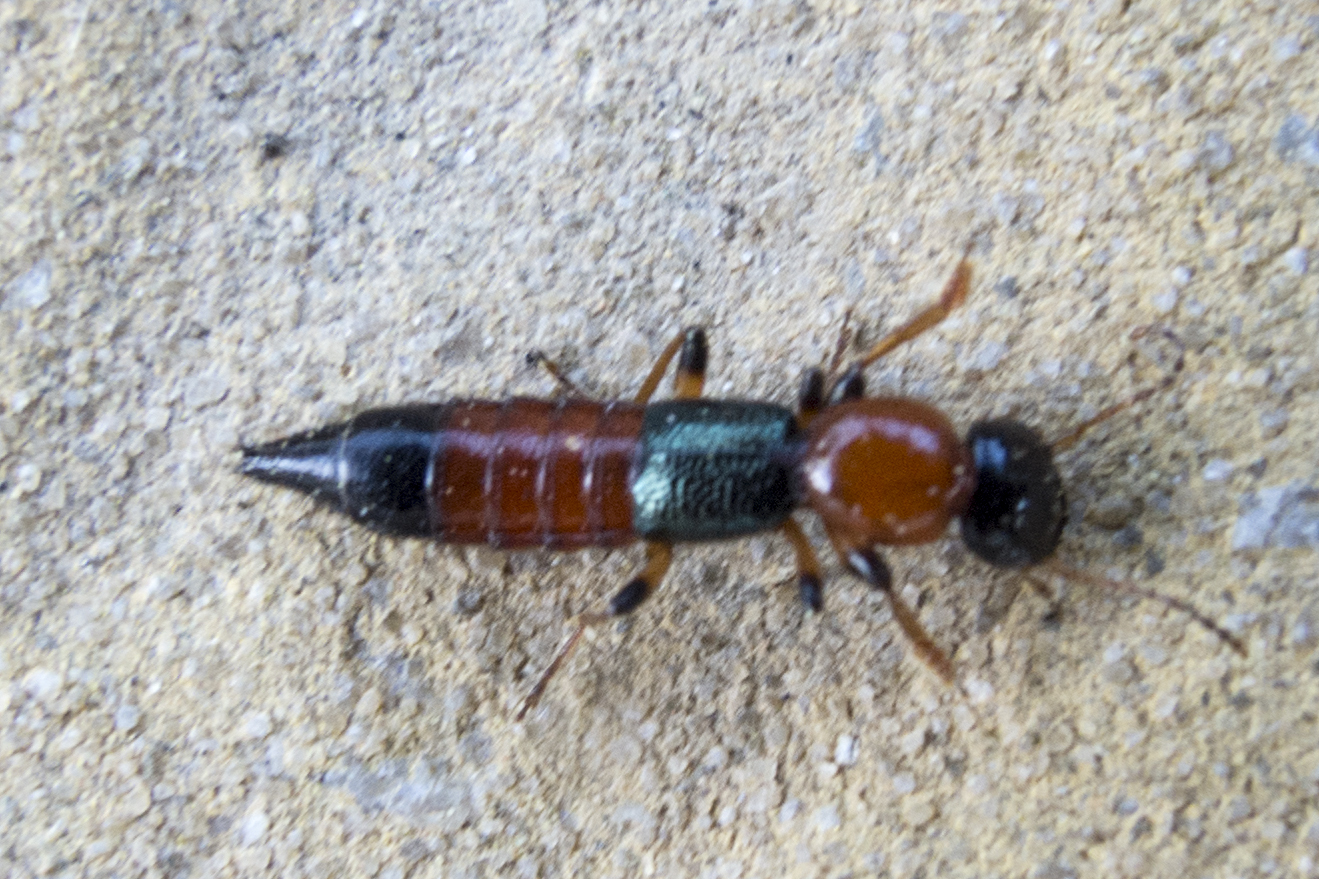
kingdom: Animalia
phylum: Arthropoda
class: Insecta
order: Coleoptera
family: Staphylinidae
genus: Paederus
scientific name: Paederus littoralis
